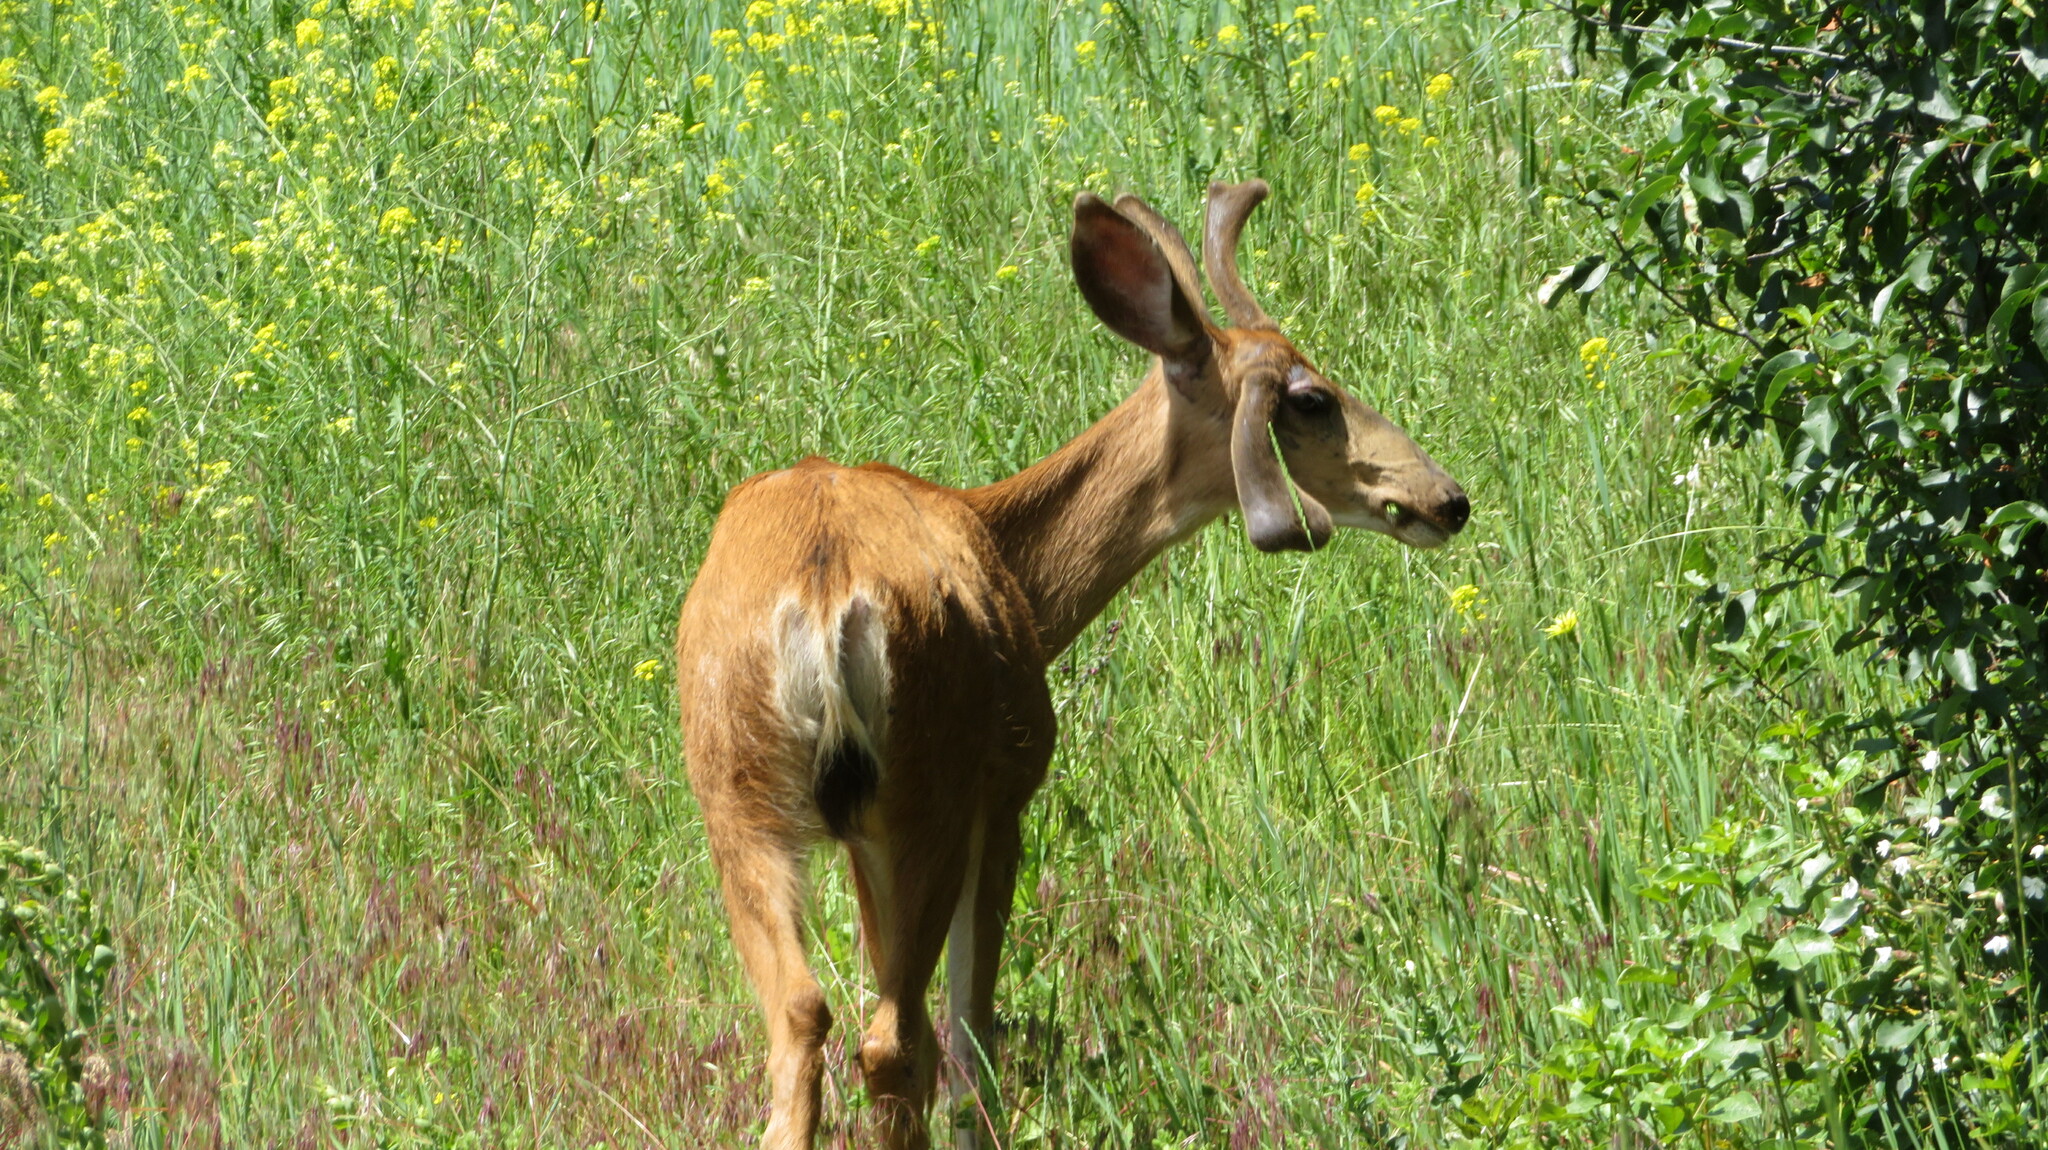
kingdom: Animalia
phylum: Chordata
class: Mammalia
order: Artiodactyla
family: Cervidae
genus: Odocoileus
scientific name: Odocoileus hemionus
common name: Mule deer
